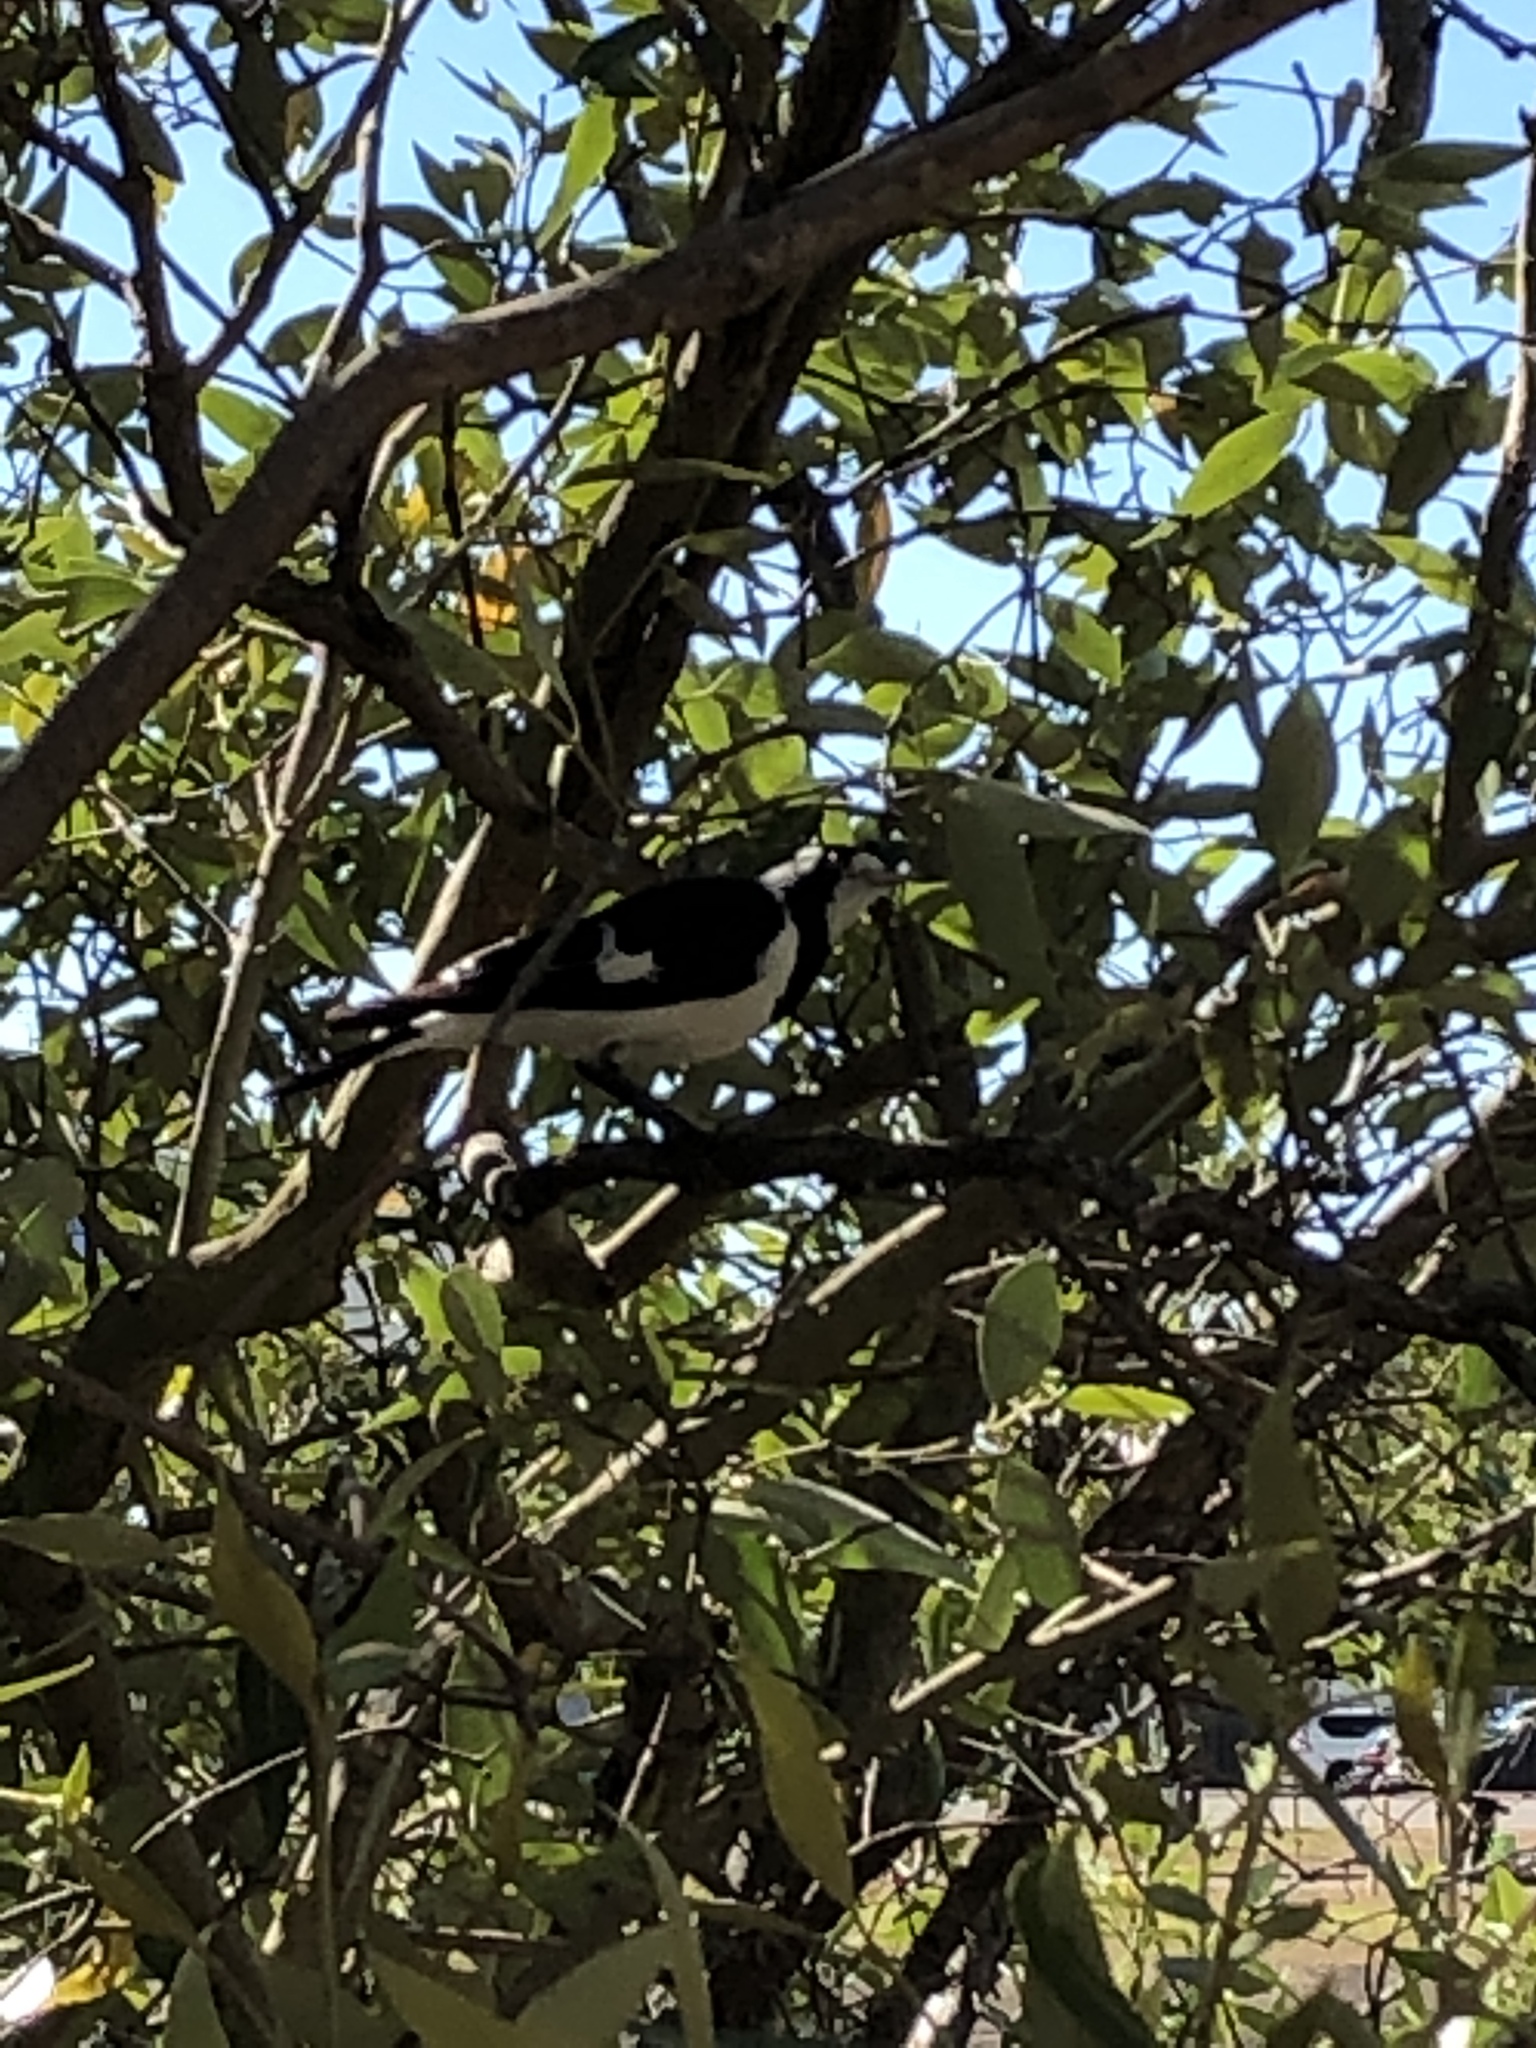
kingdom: Animalia
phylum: Chordata
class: Aves
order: Passeriformes
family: Monarchidae
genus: Grallina
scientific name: Grallina cyanoleuca
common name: Magpie-lark
